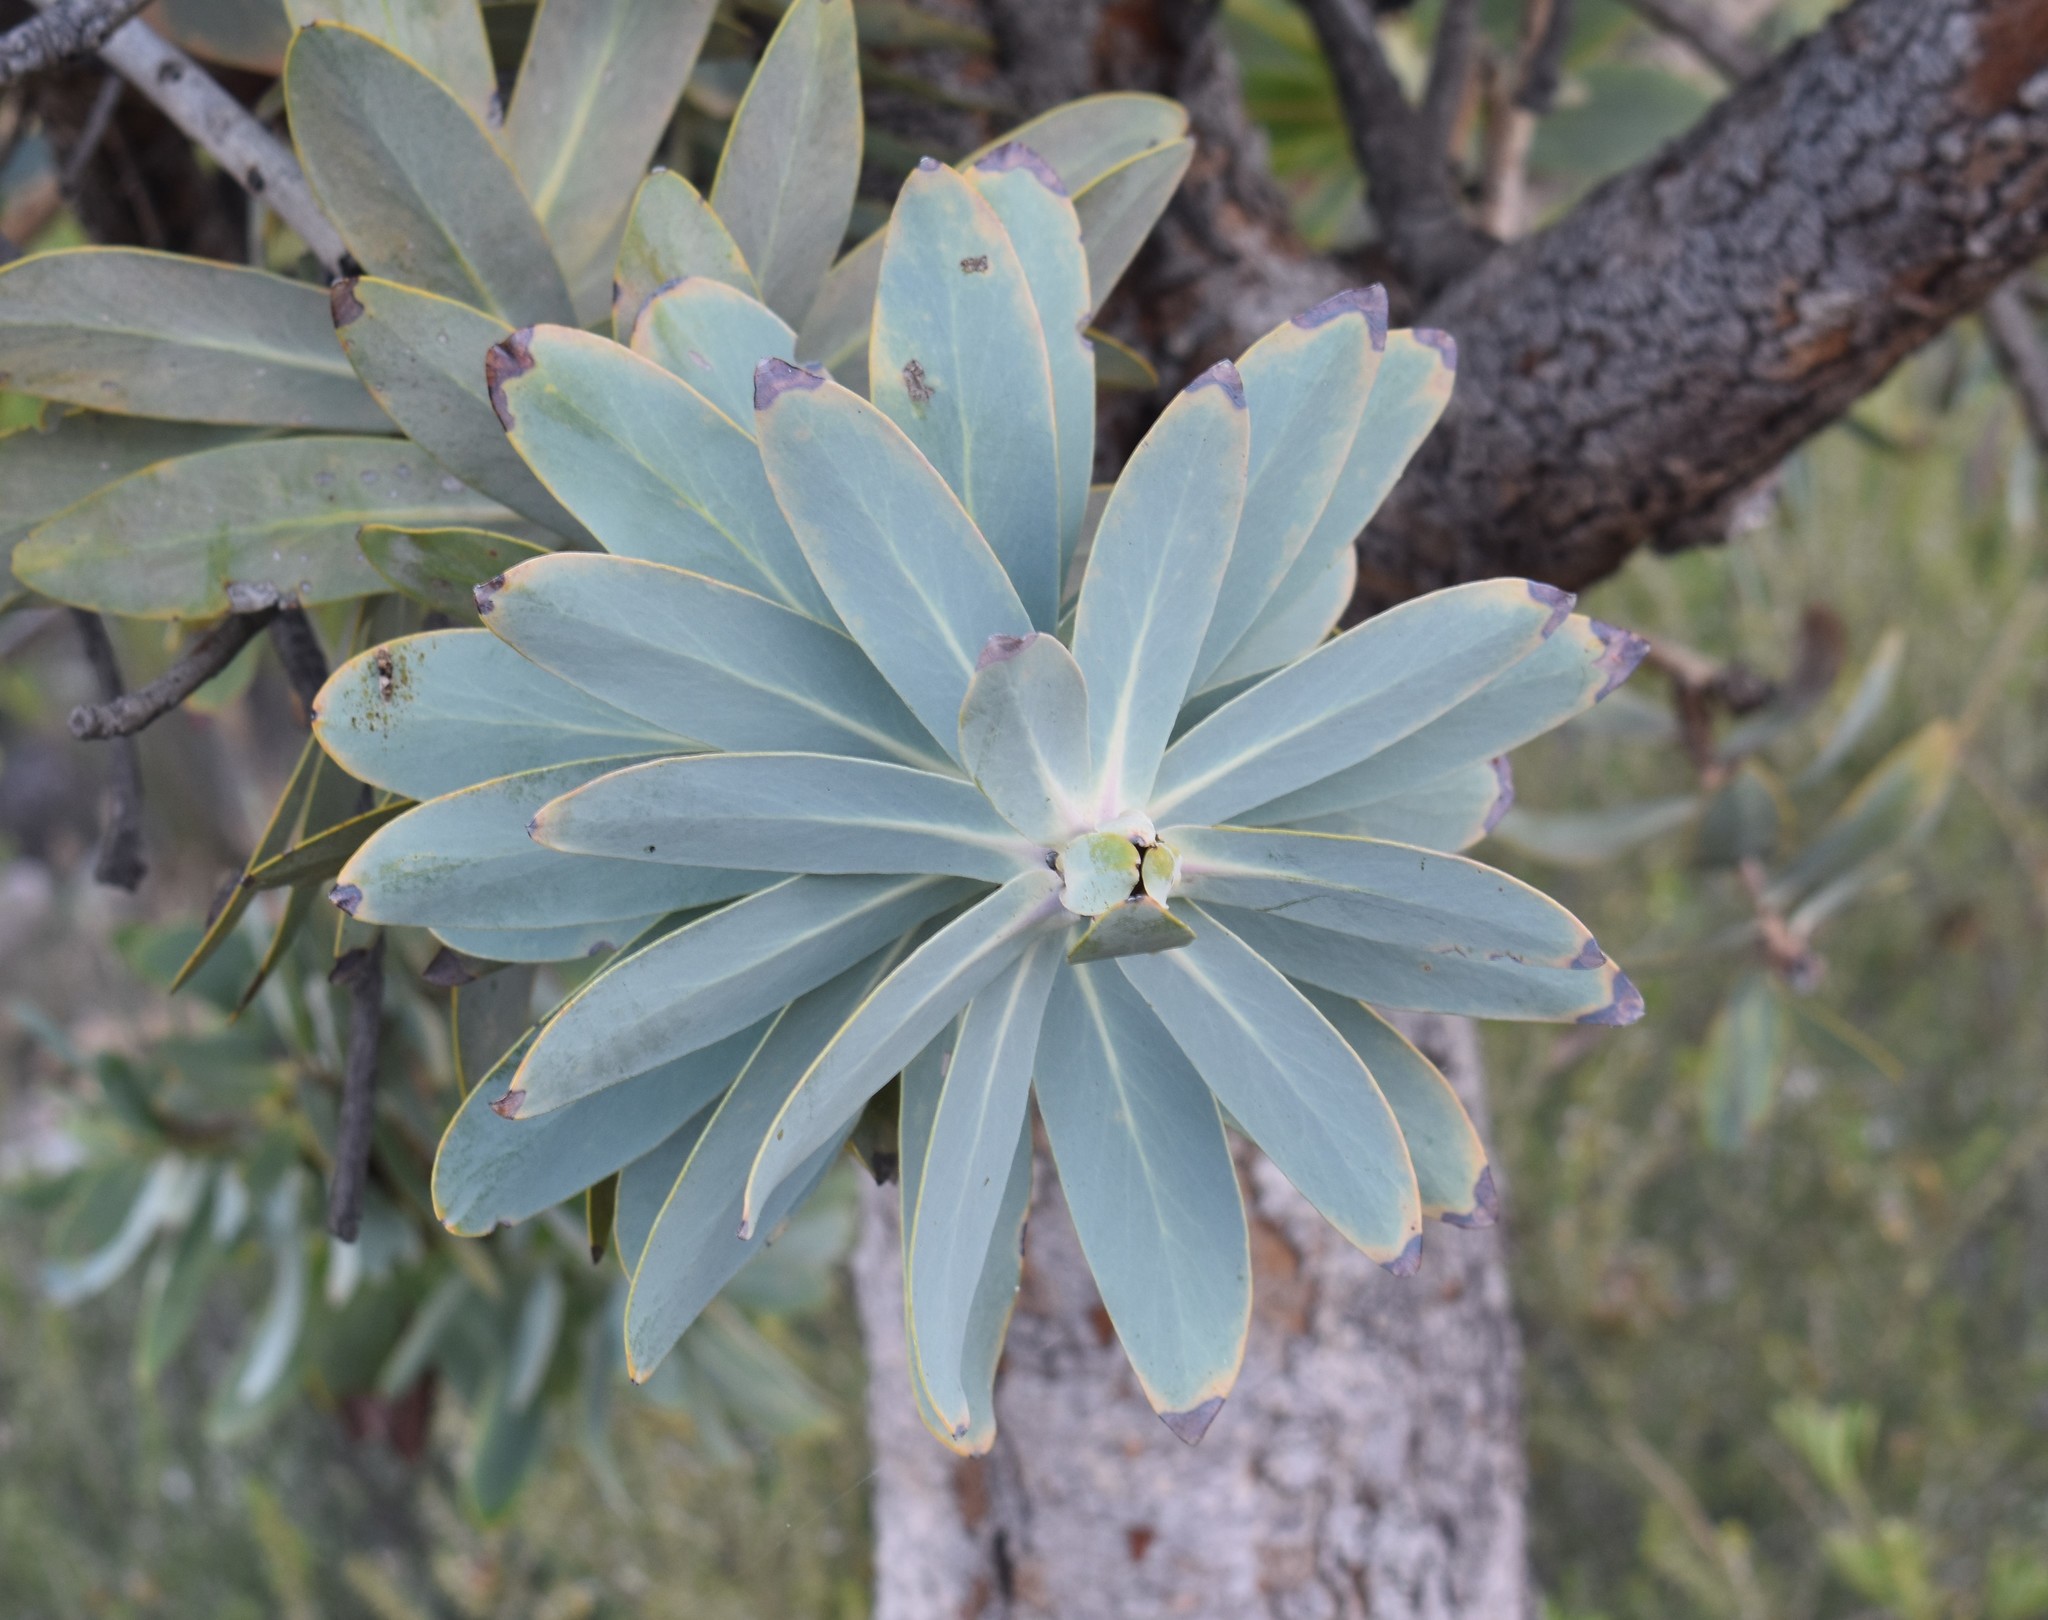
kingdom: Plantae
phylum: Tracheophyta
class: Magnoliopsida
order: Proteales
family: Proteaceae
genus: Protea
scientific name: Protea nitida
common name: Tree protea
